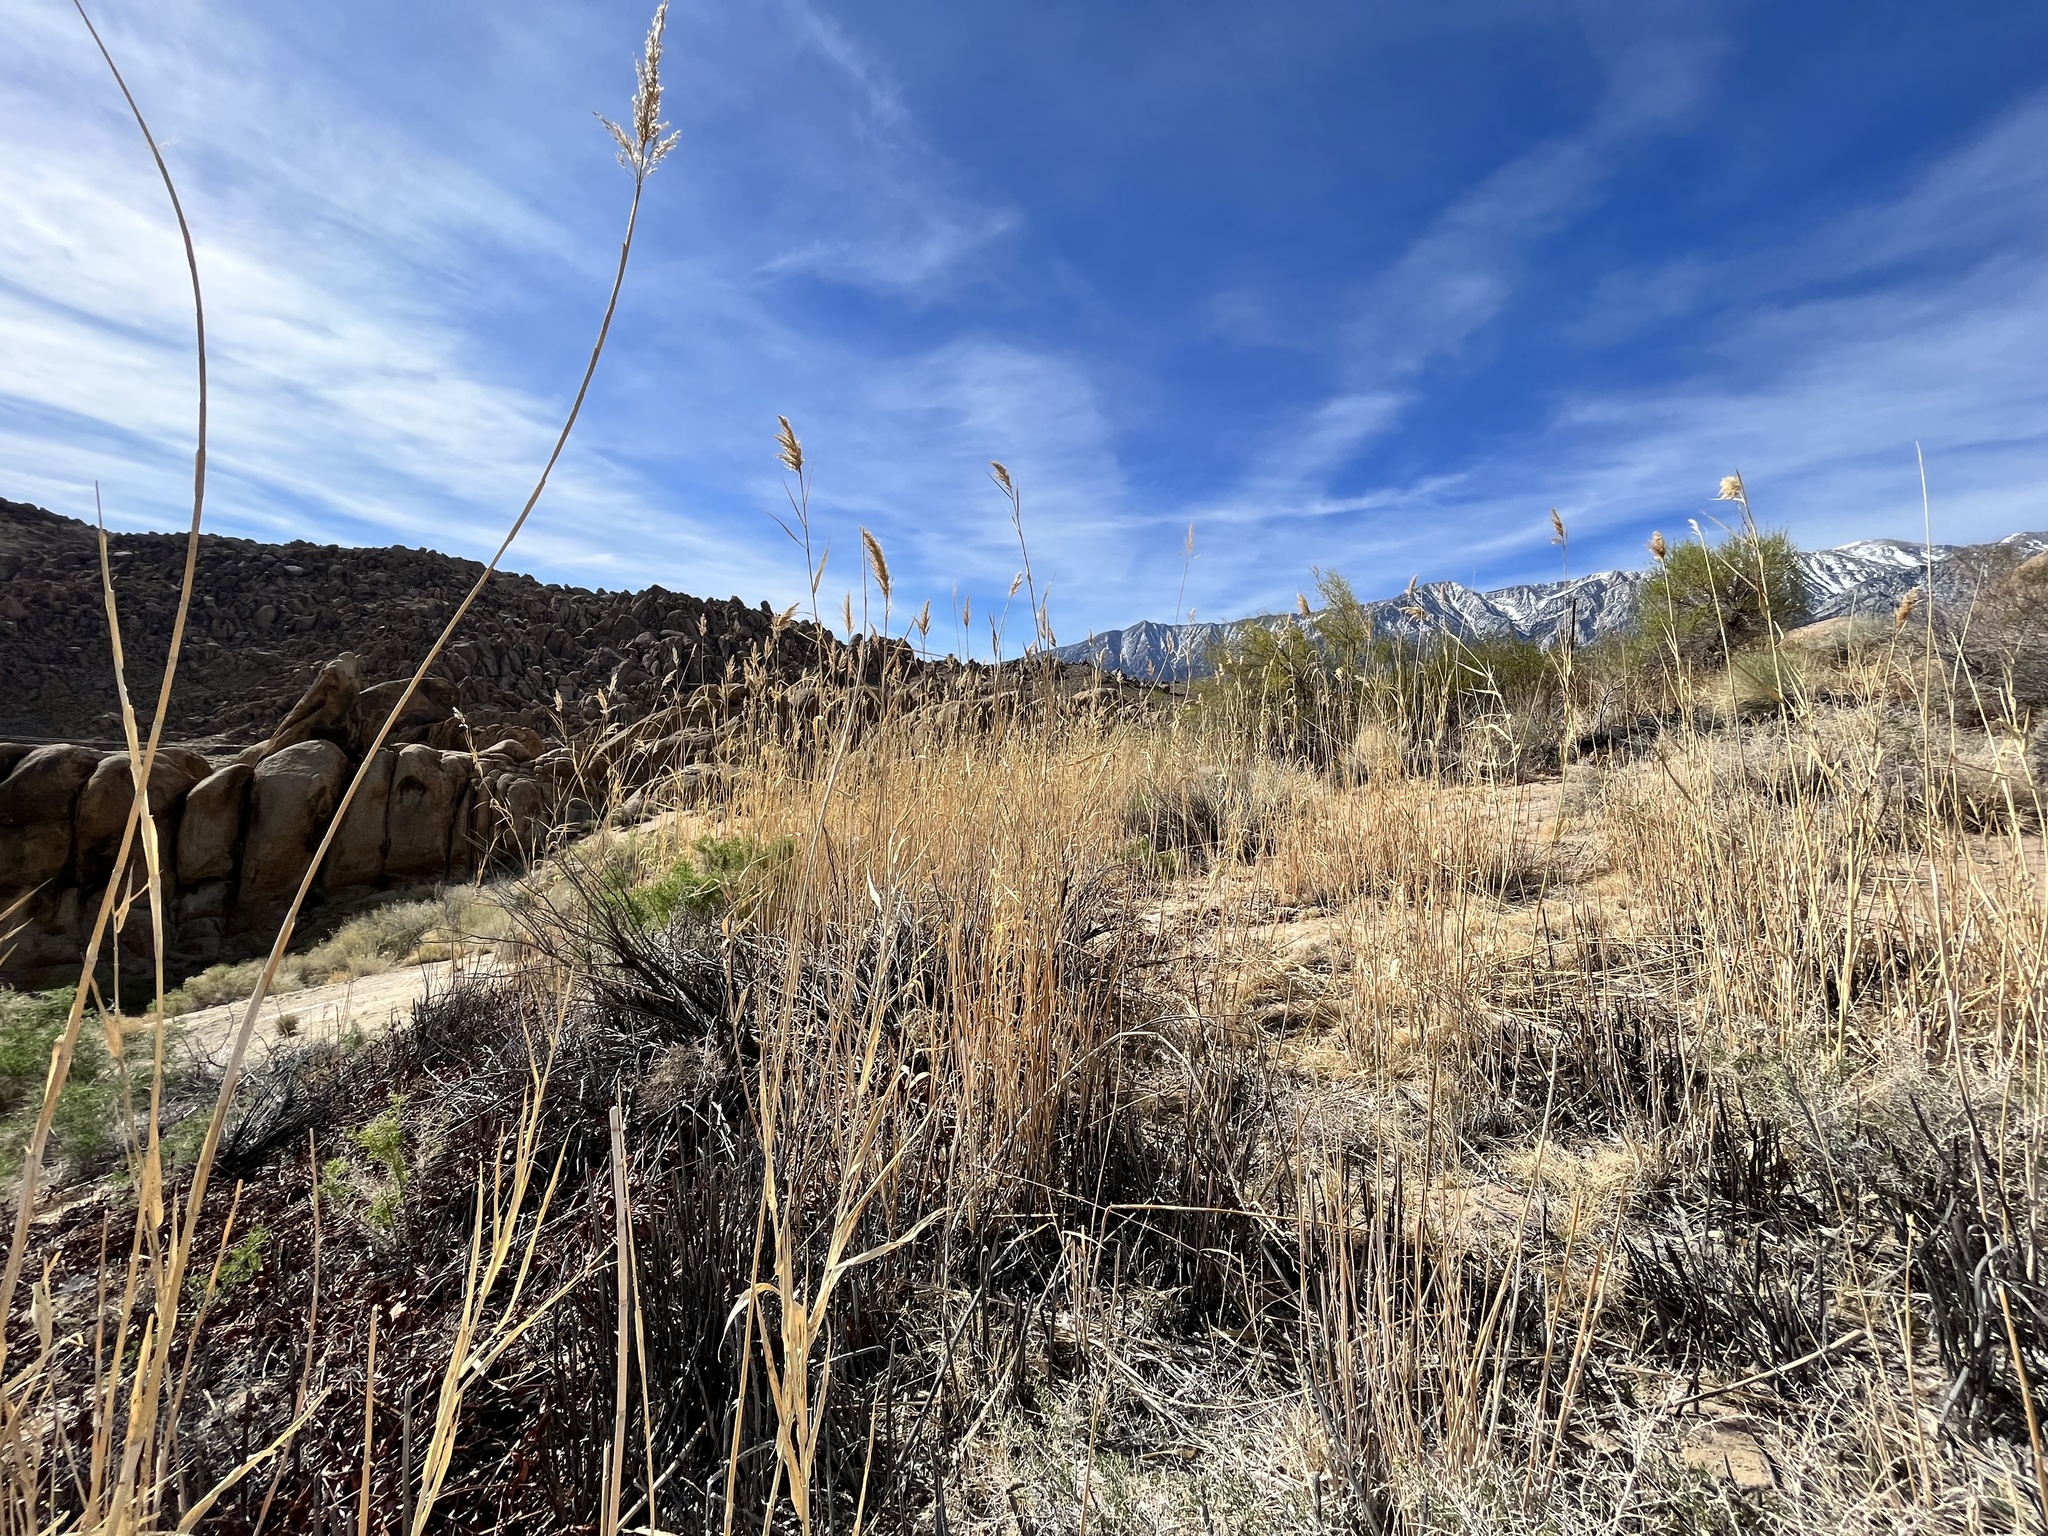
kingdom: Plantae
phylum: Tracheophyta
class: Liliopsida
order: Poales
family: Poaceae
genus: Phragmites
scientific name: Phragmites australis
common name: Common reed
